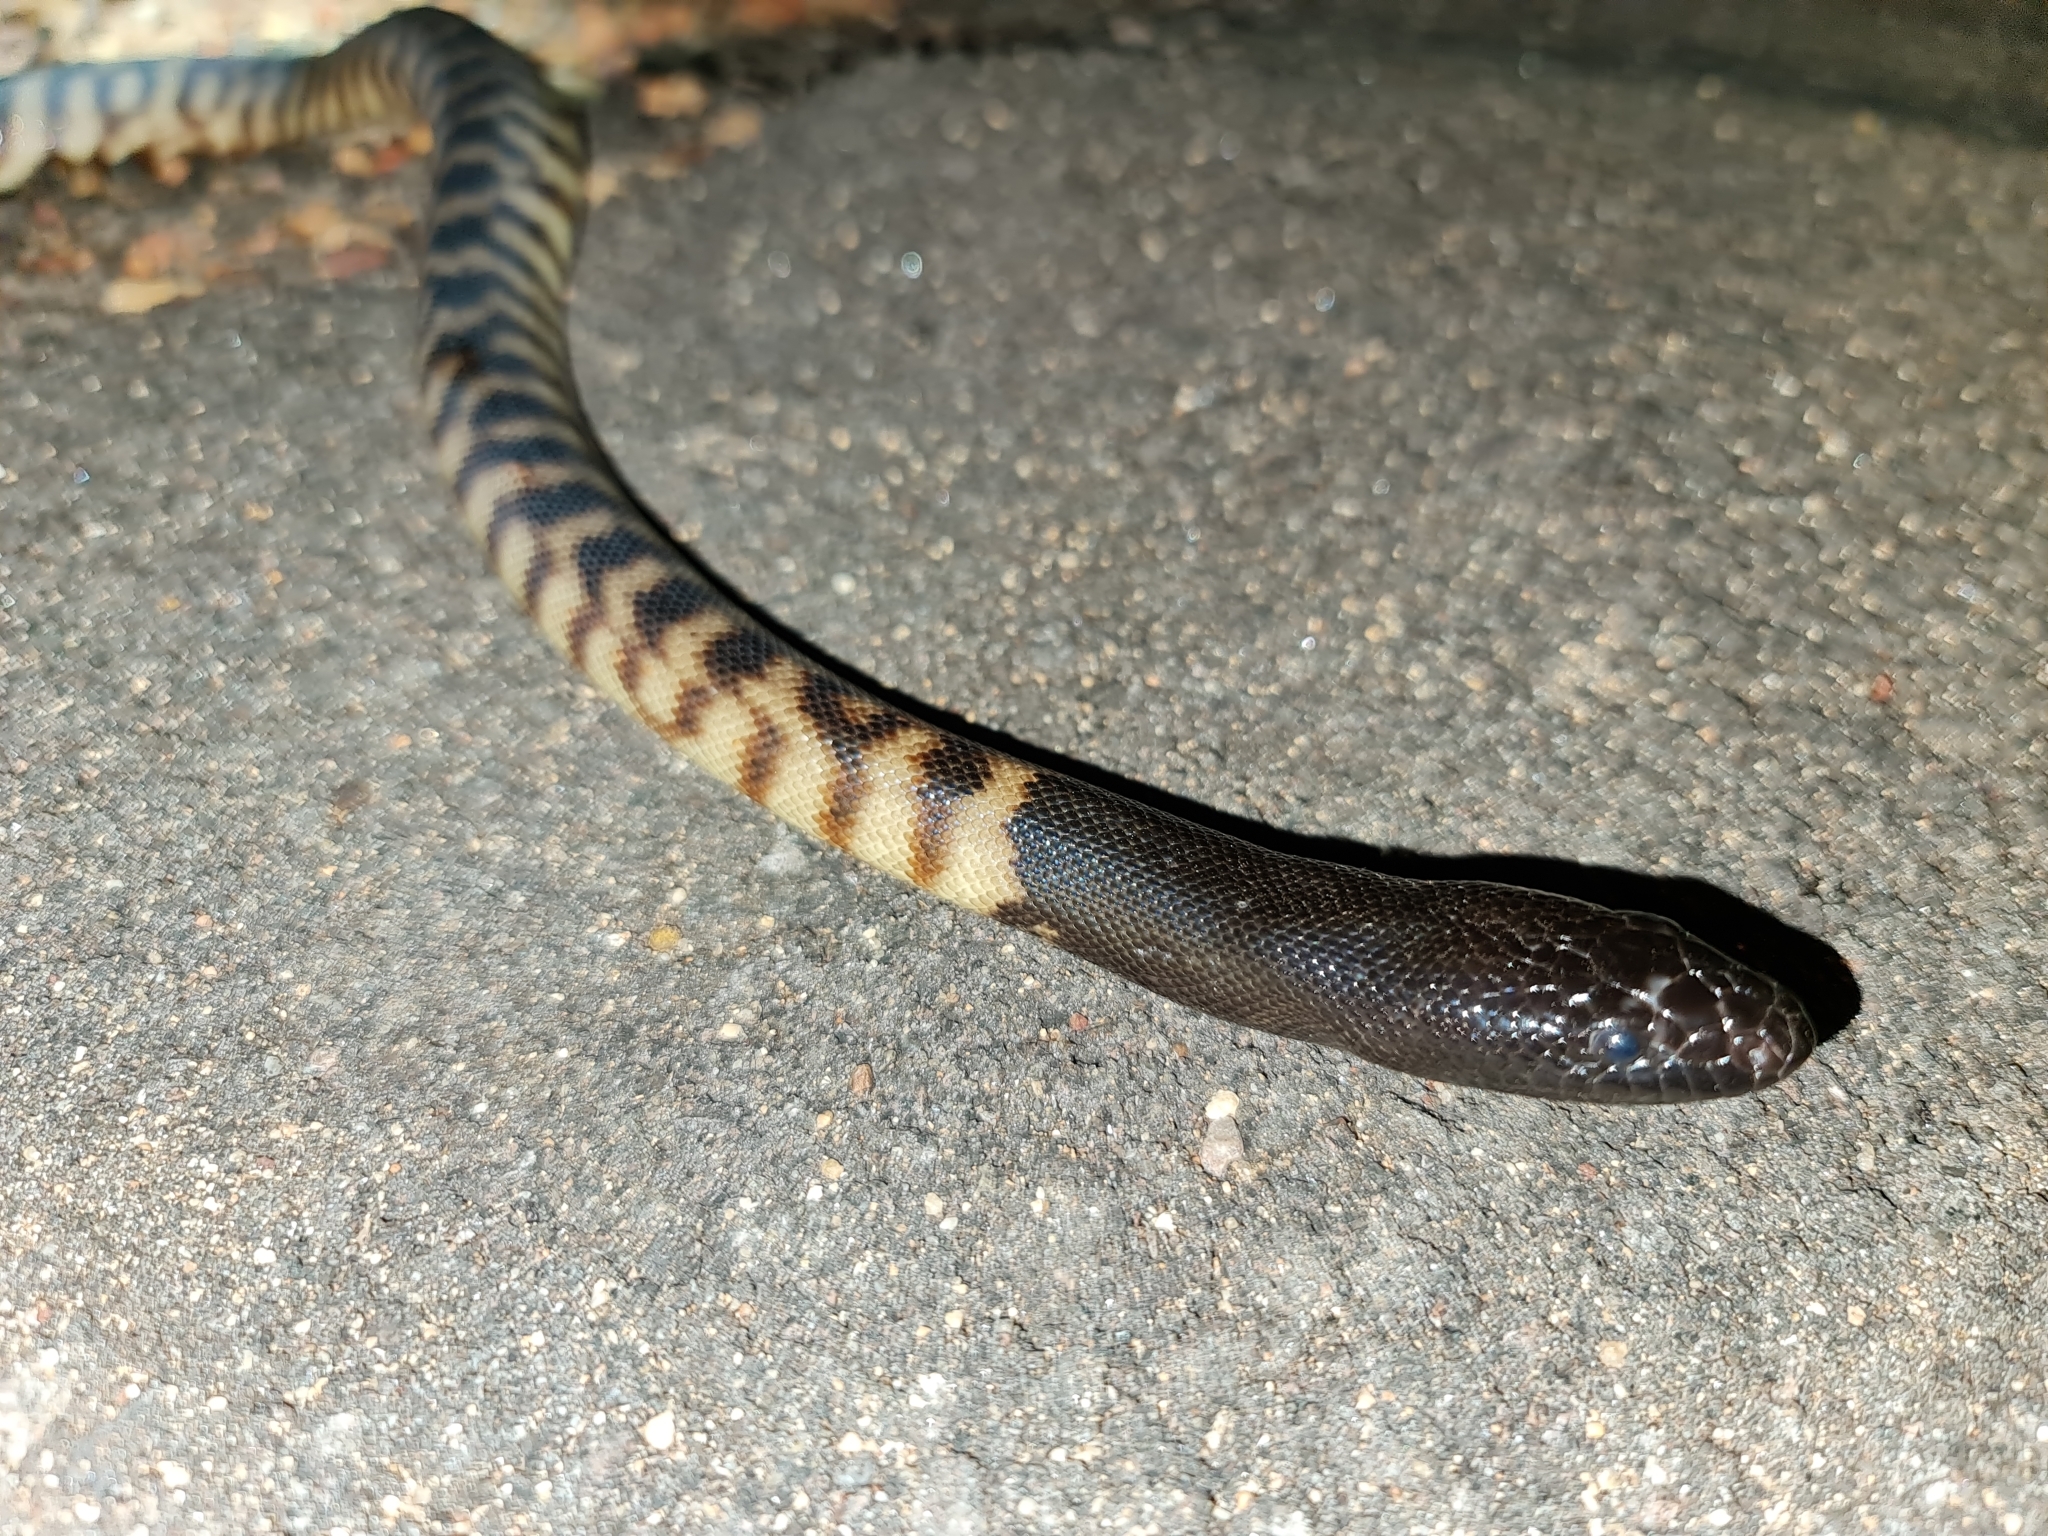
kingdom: Animalia
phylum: Chordata
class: Squamata
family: Pythonidae
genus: Aspidites
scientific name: Aspidites melanocephalus
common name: Black-headed python
